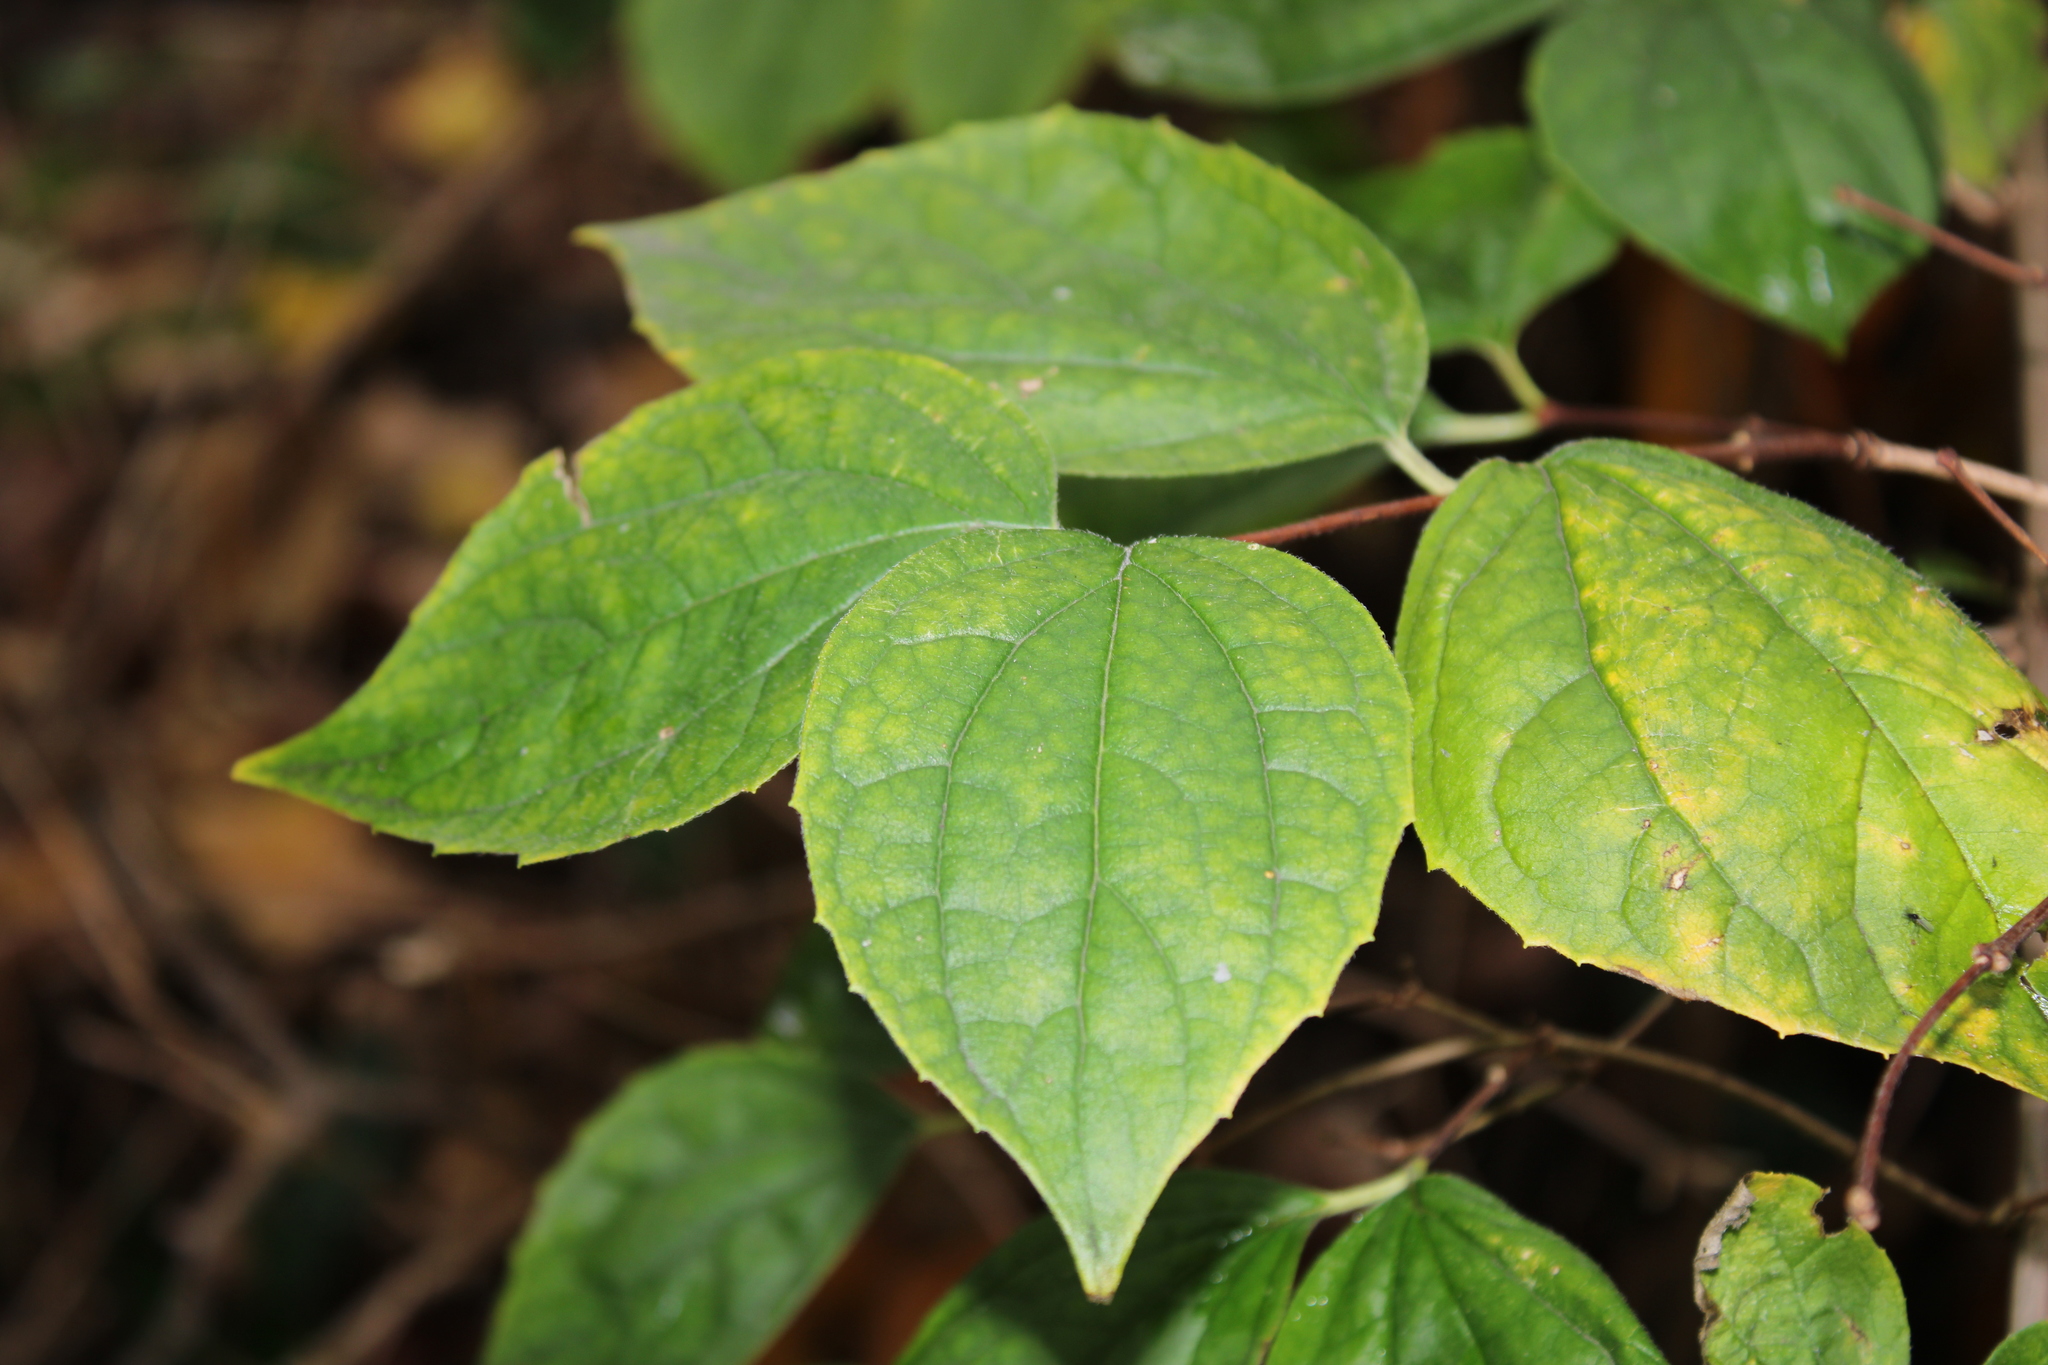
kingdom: Plantae
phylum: Tracheophyta
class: Magnoliopsida
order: Cornales
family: Hydrangeaceae
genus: Philadelphus
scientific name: Philadelphus coronarius
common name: Mock orange
